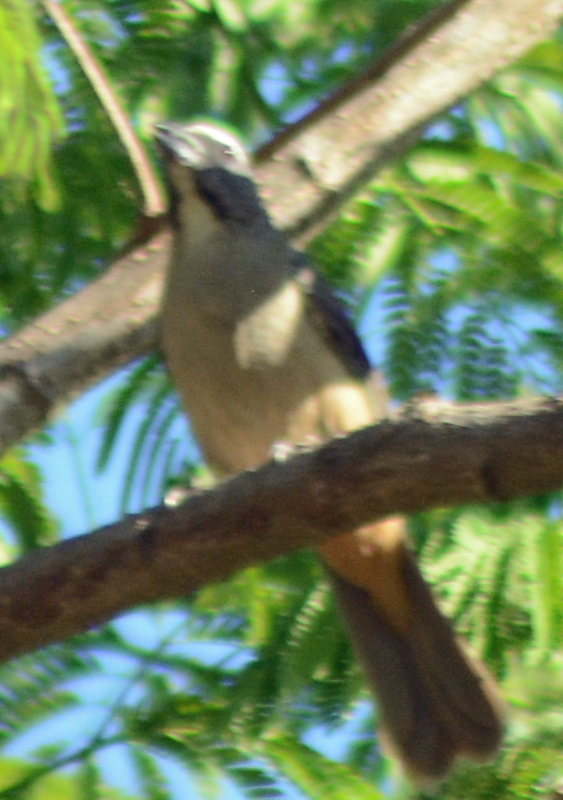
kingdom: Animalia
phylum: Chordata
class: Aves
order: Passeriformes
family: Thraupidae
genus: Saltator
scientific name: Saltator grandis
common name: Cinnamon-bellied saltator
